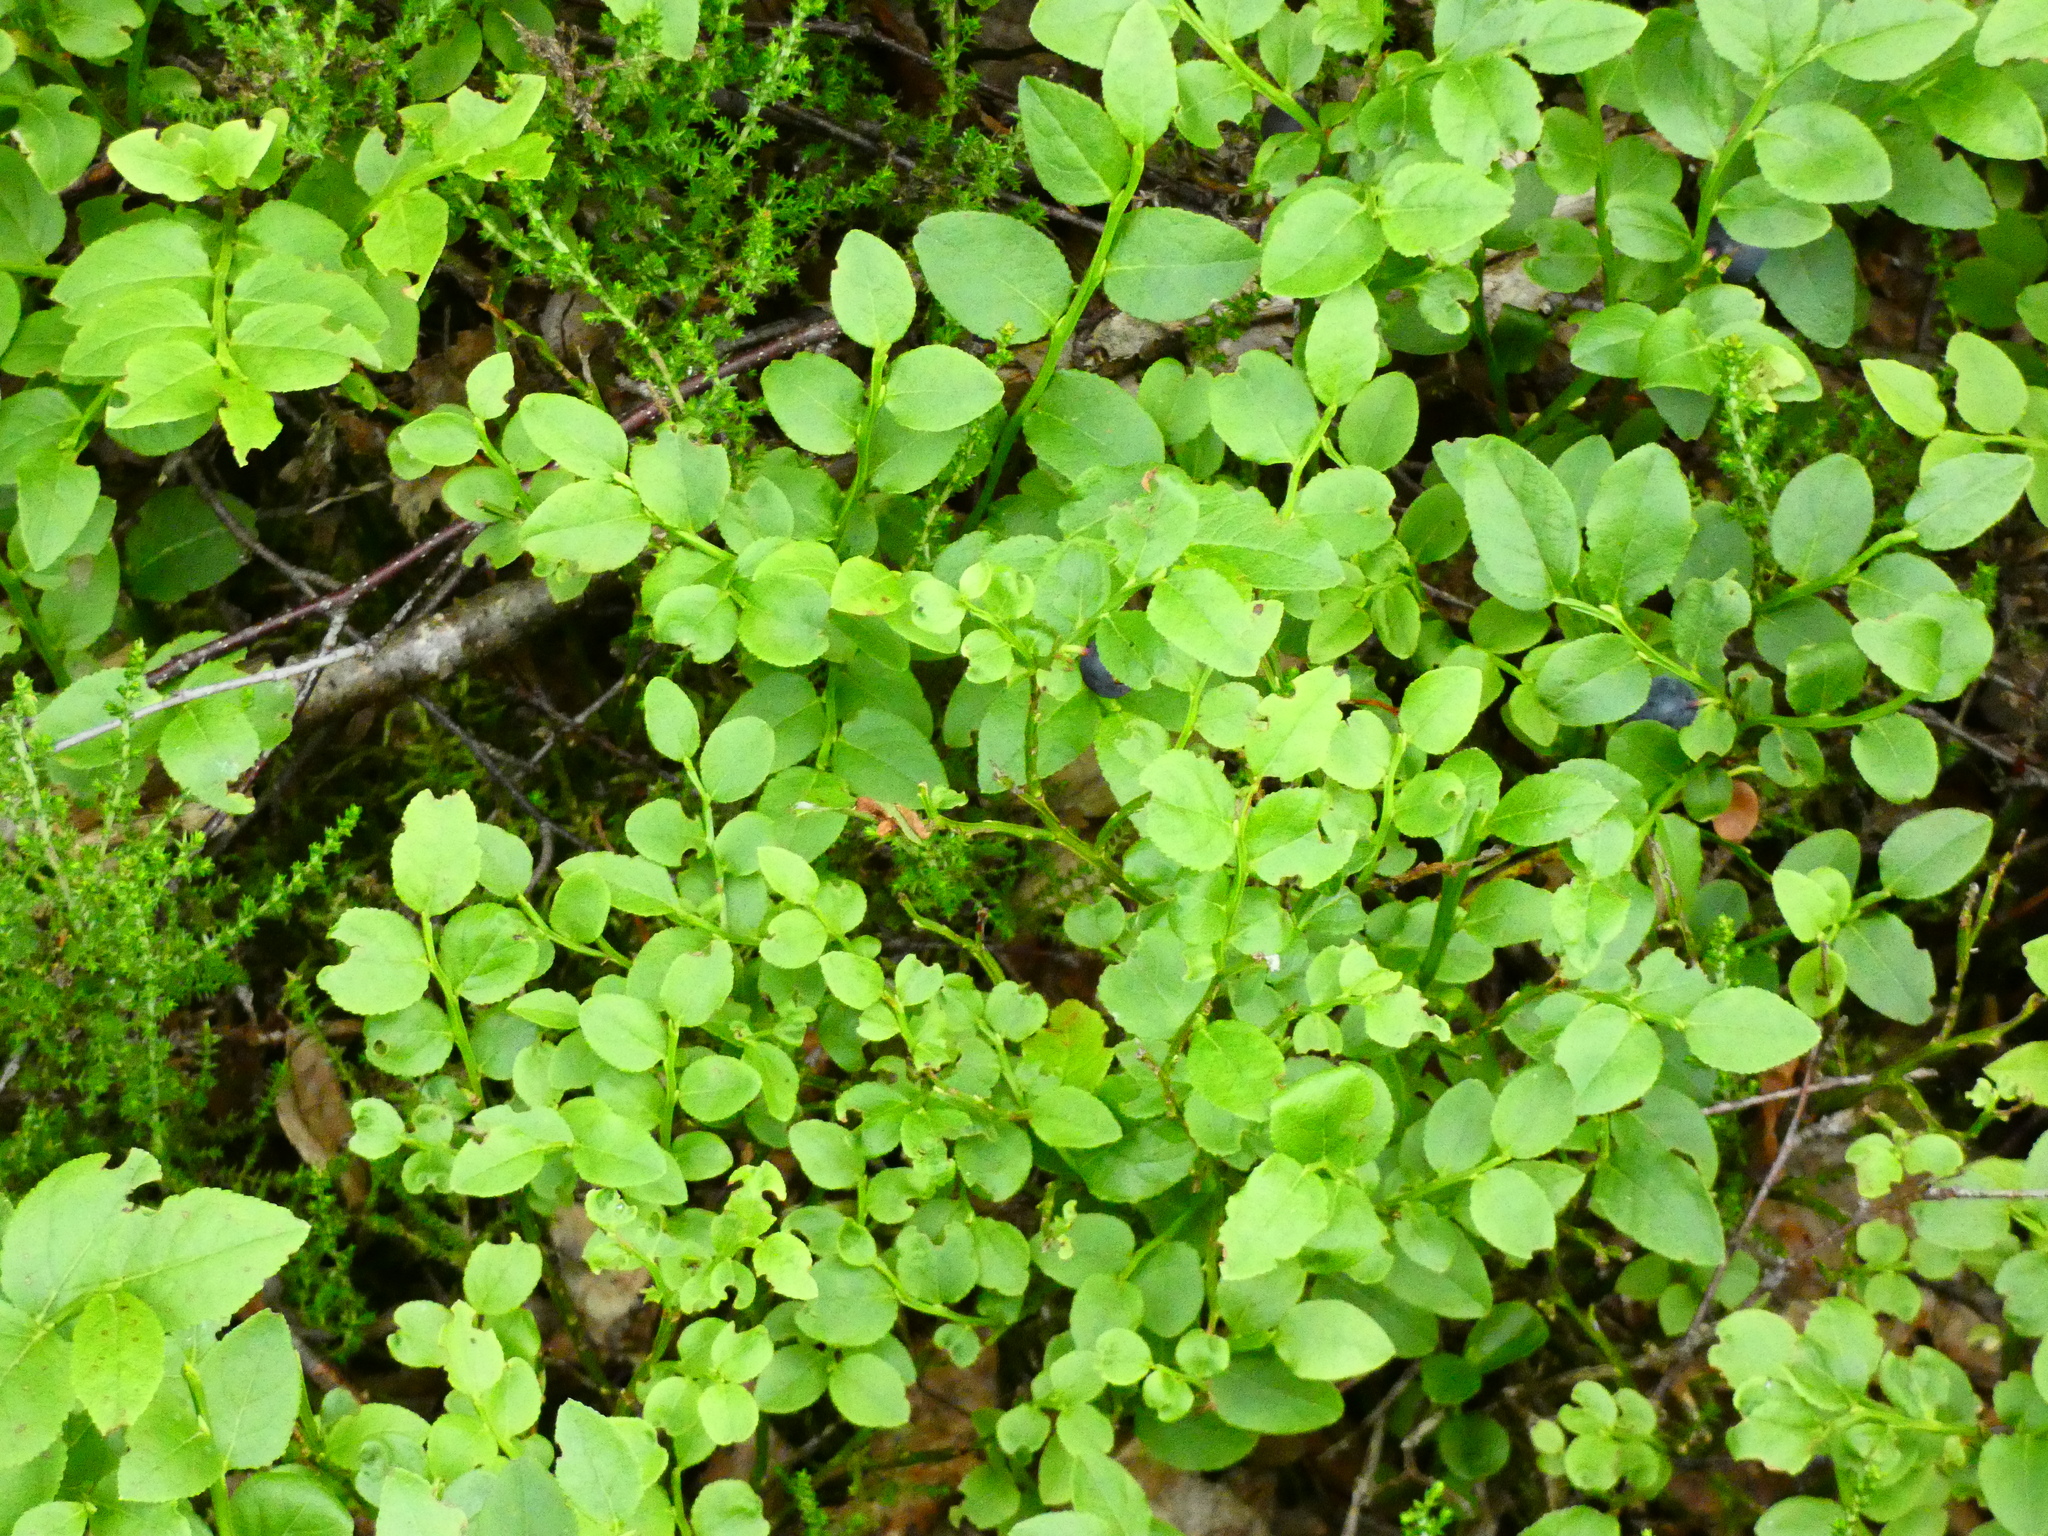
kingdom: Plantae
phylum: Tracheophyta
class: Magnoliopsida
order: Ericales
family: Ericaceae
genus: Vaccinium
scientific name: Vaccinium myrtillus
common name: Bilberry
